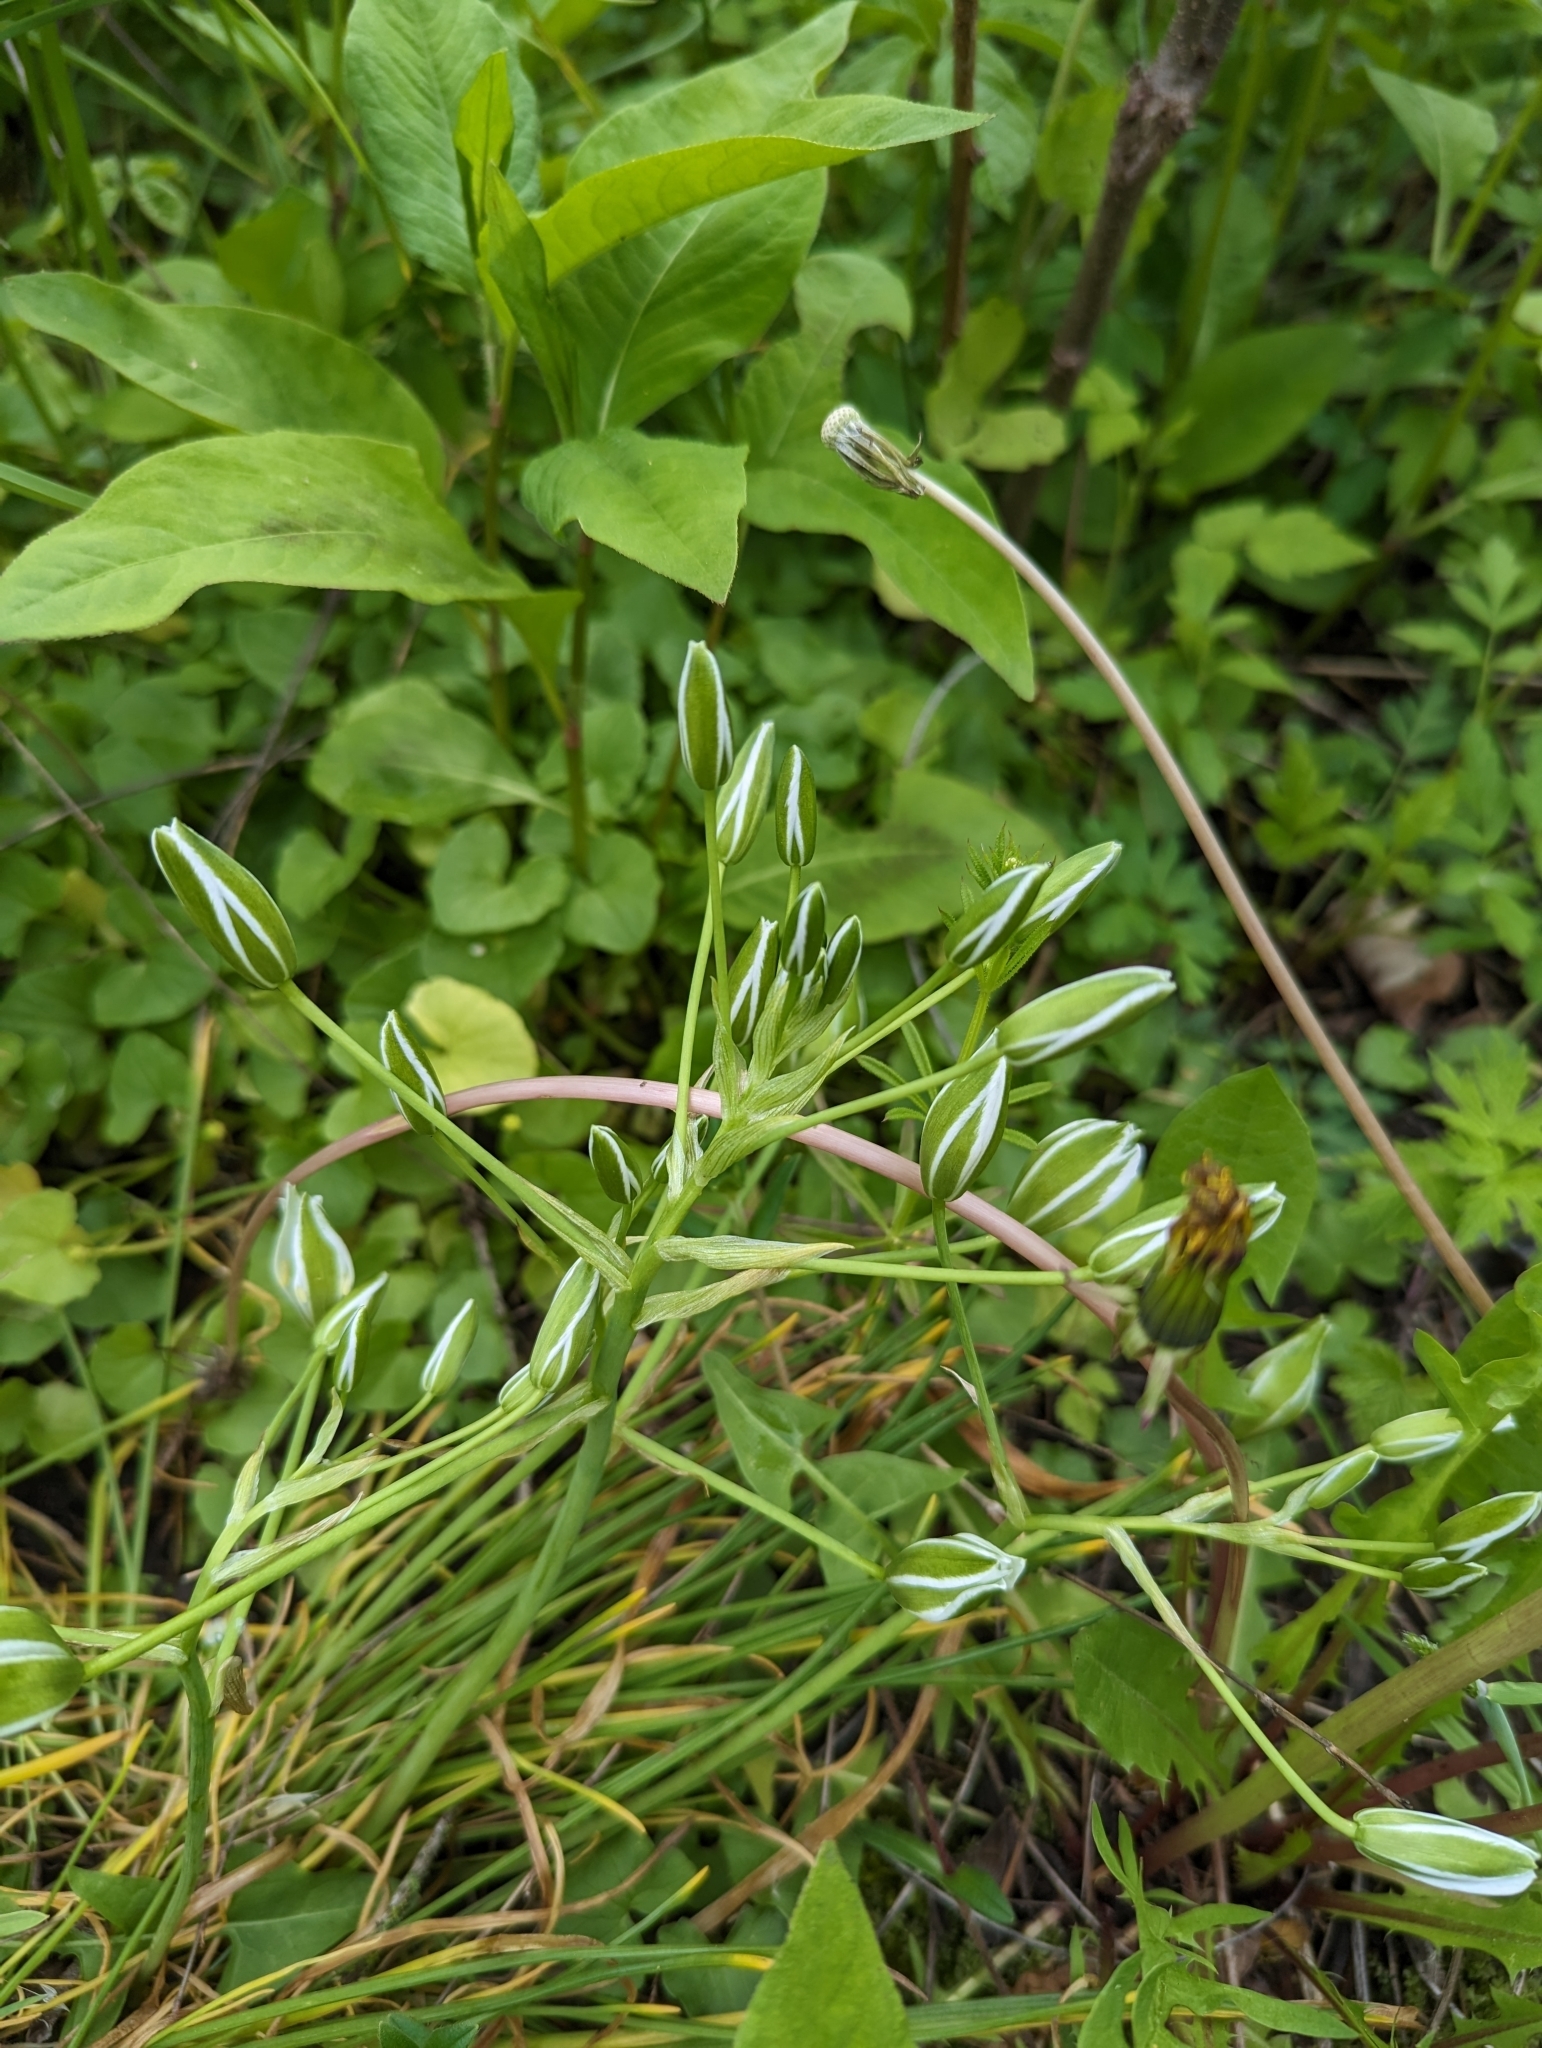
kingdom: Plantae
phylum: Tracheophyta
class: Liliopsida
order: Asparagales
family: Asparagaceae
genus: Ornithogalum
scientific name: Ornithogalum umbellatum
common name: Garden star-of-bethlehem
